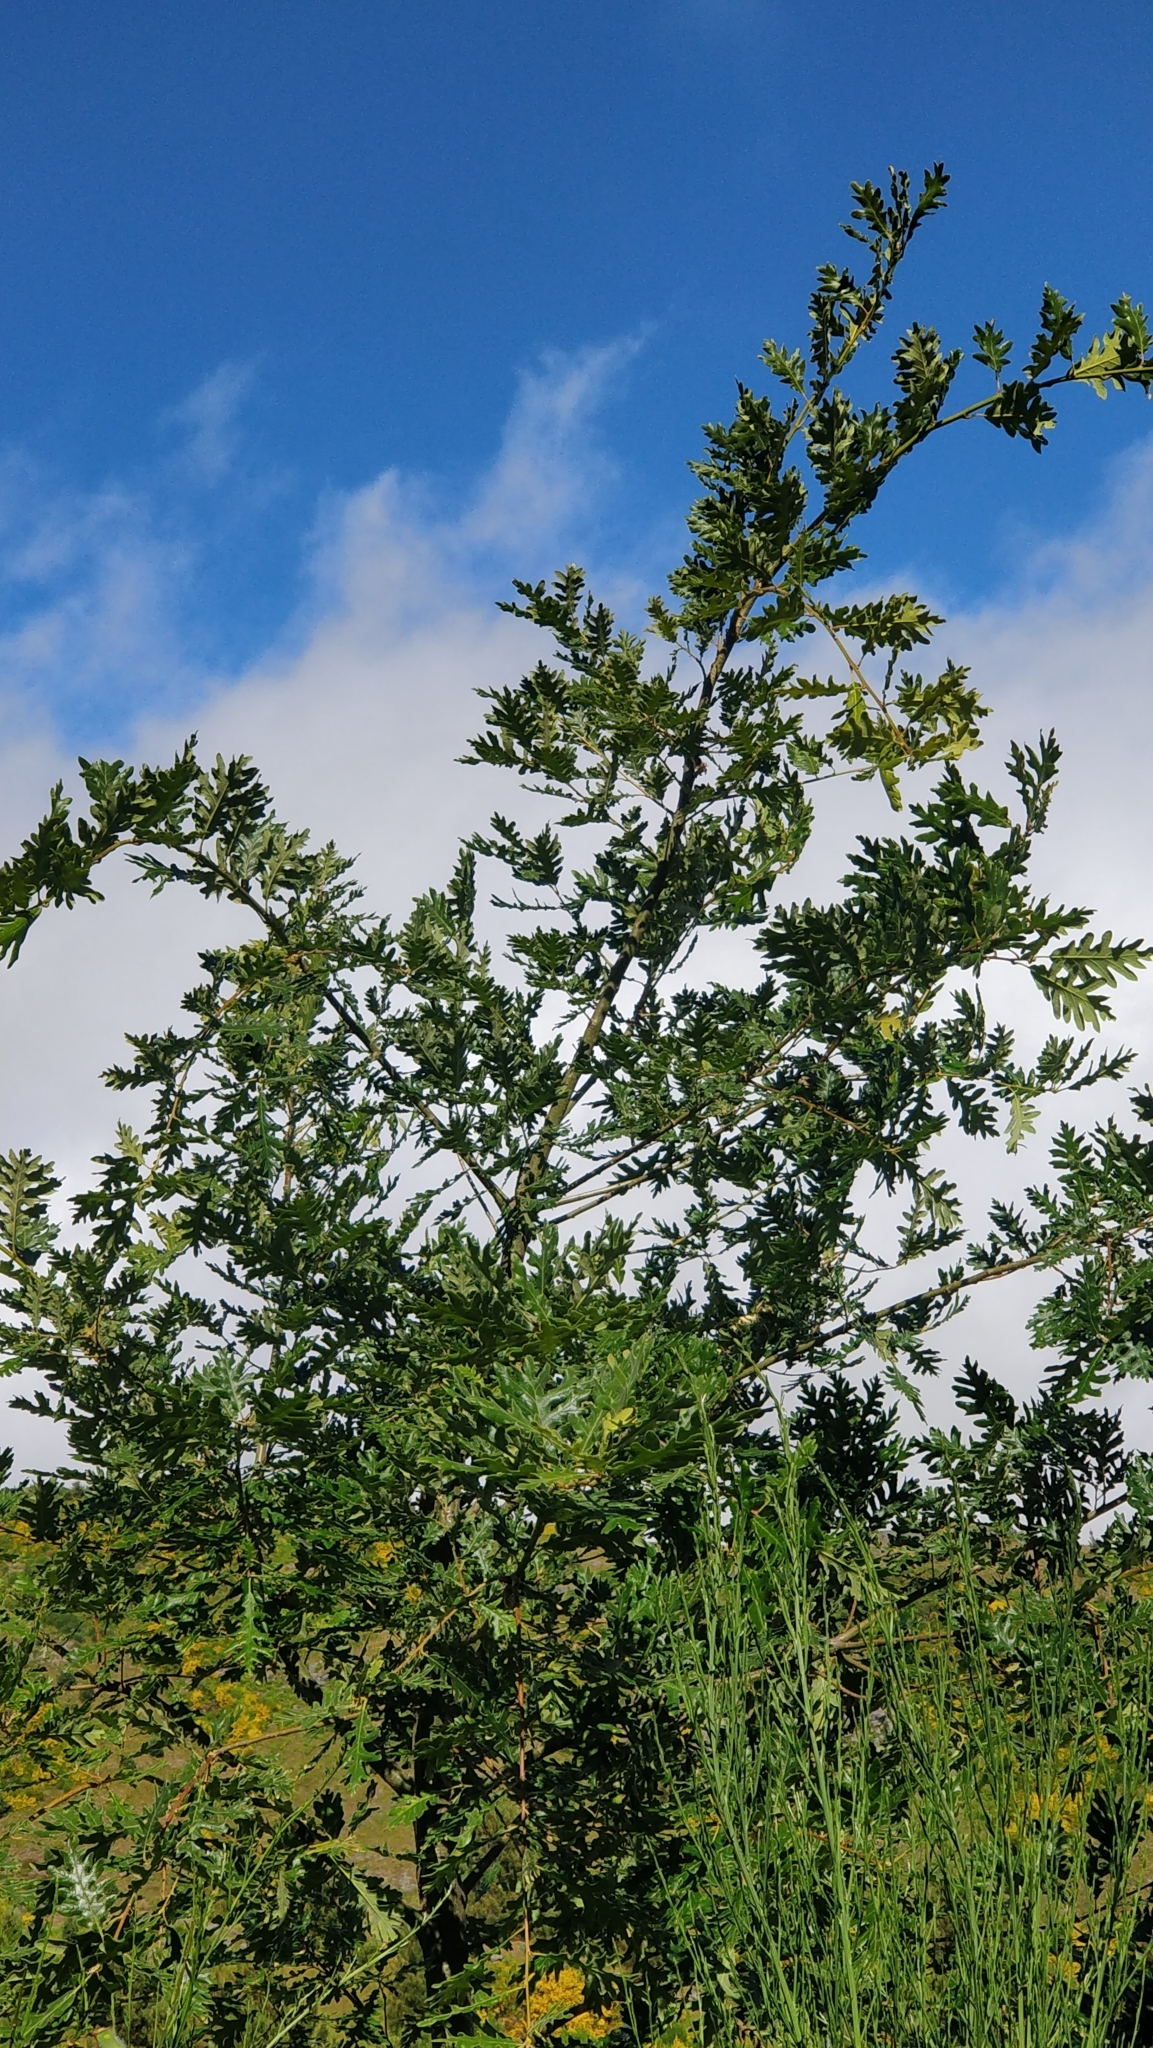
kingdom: Plantae
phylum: Tracheophyta
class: Magnoliopsida
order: Fagales
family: Fagaceae
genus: Quercus
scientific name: Quercus pyrenaica
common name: Pyrenean oak
